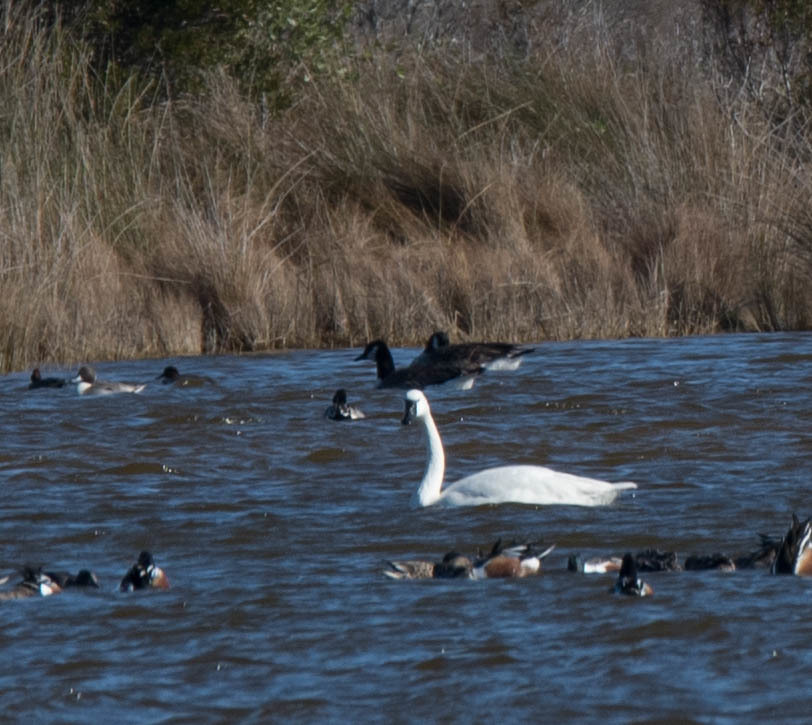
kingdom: Animalia
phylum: Chordata
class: Aves
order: Anseriformes
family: Anatidae
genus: Cygnus
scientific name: Cygnus columbianus
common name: Tundra swan
